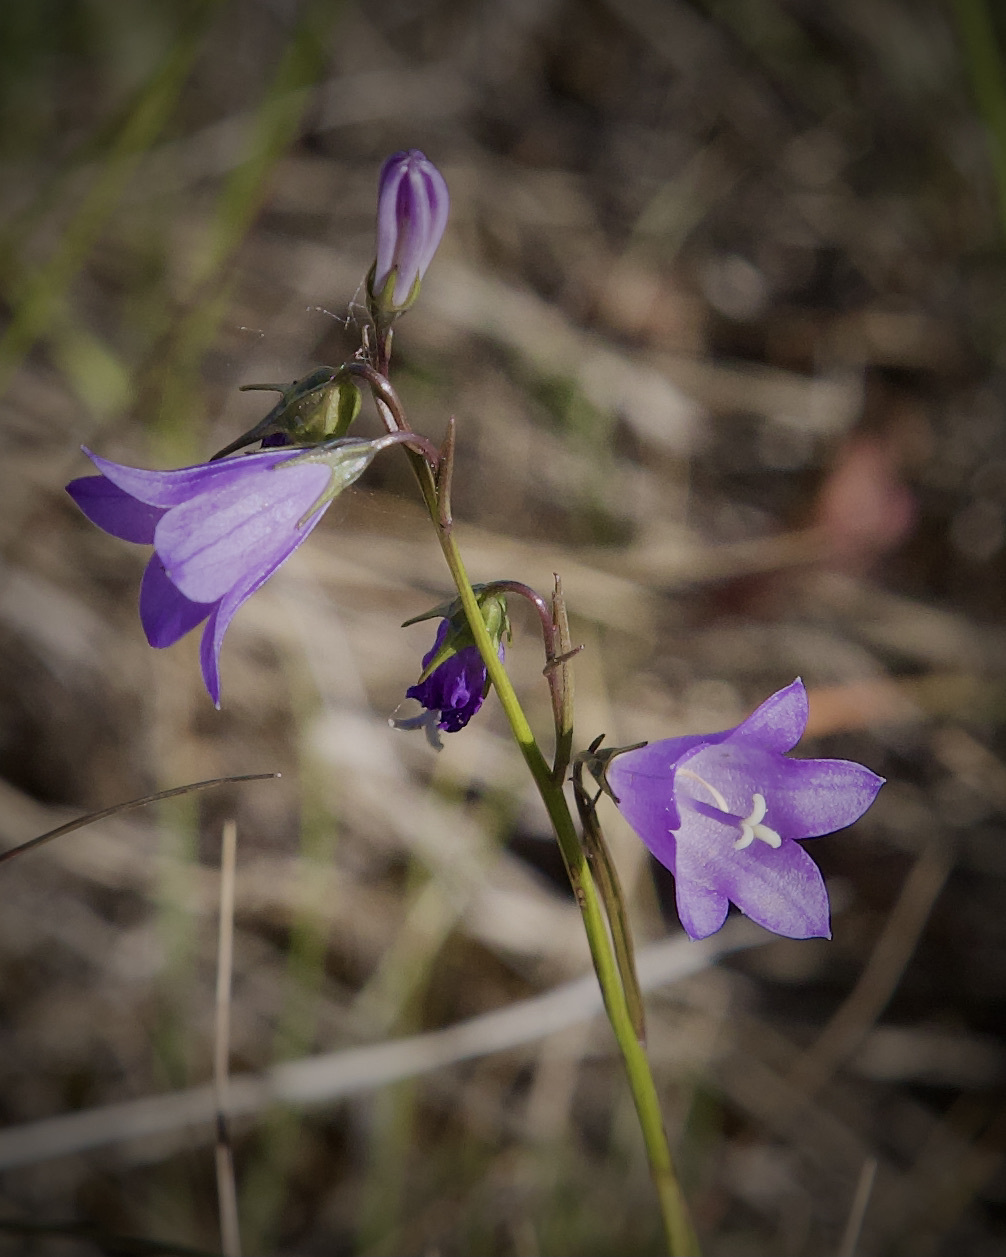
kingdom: Plantae
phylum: Tracheophyta
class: Magnoliopsida
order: Asterales
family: Campanulaceae
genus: Campanula
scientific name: Campanula alaskana
